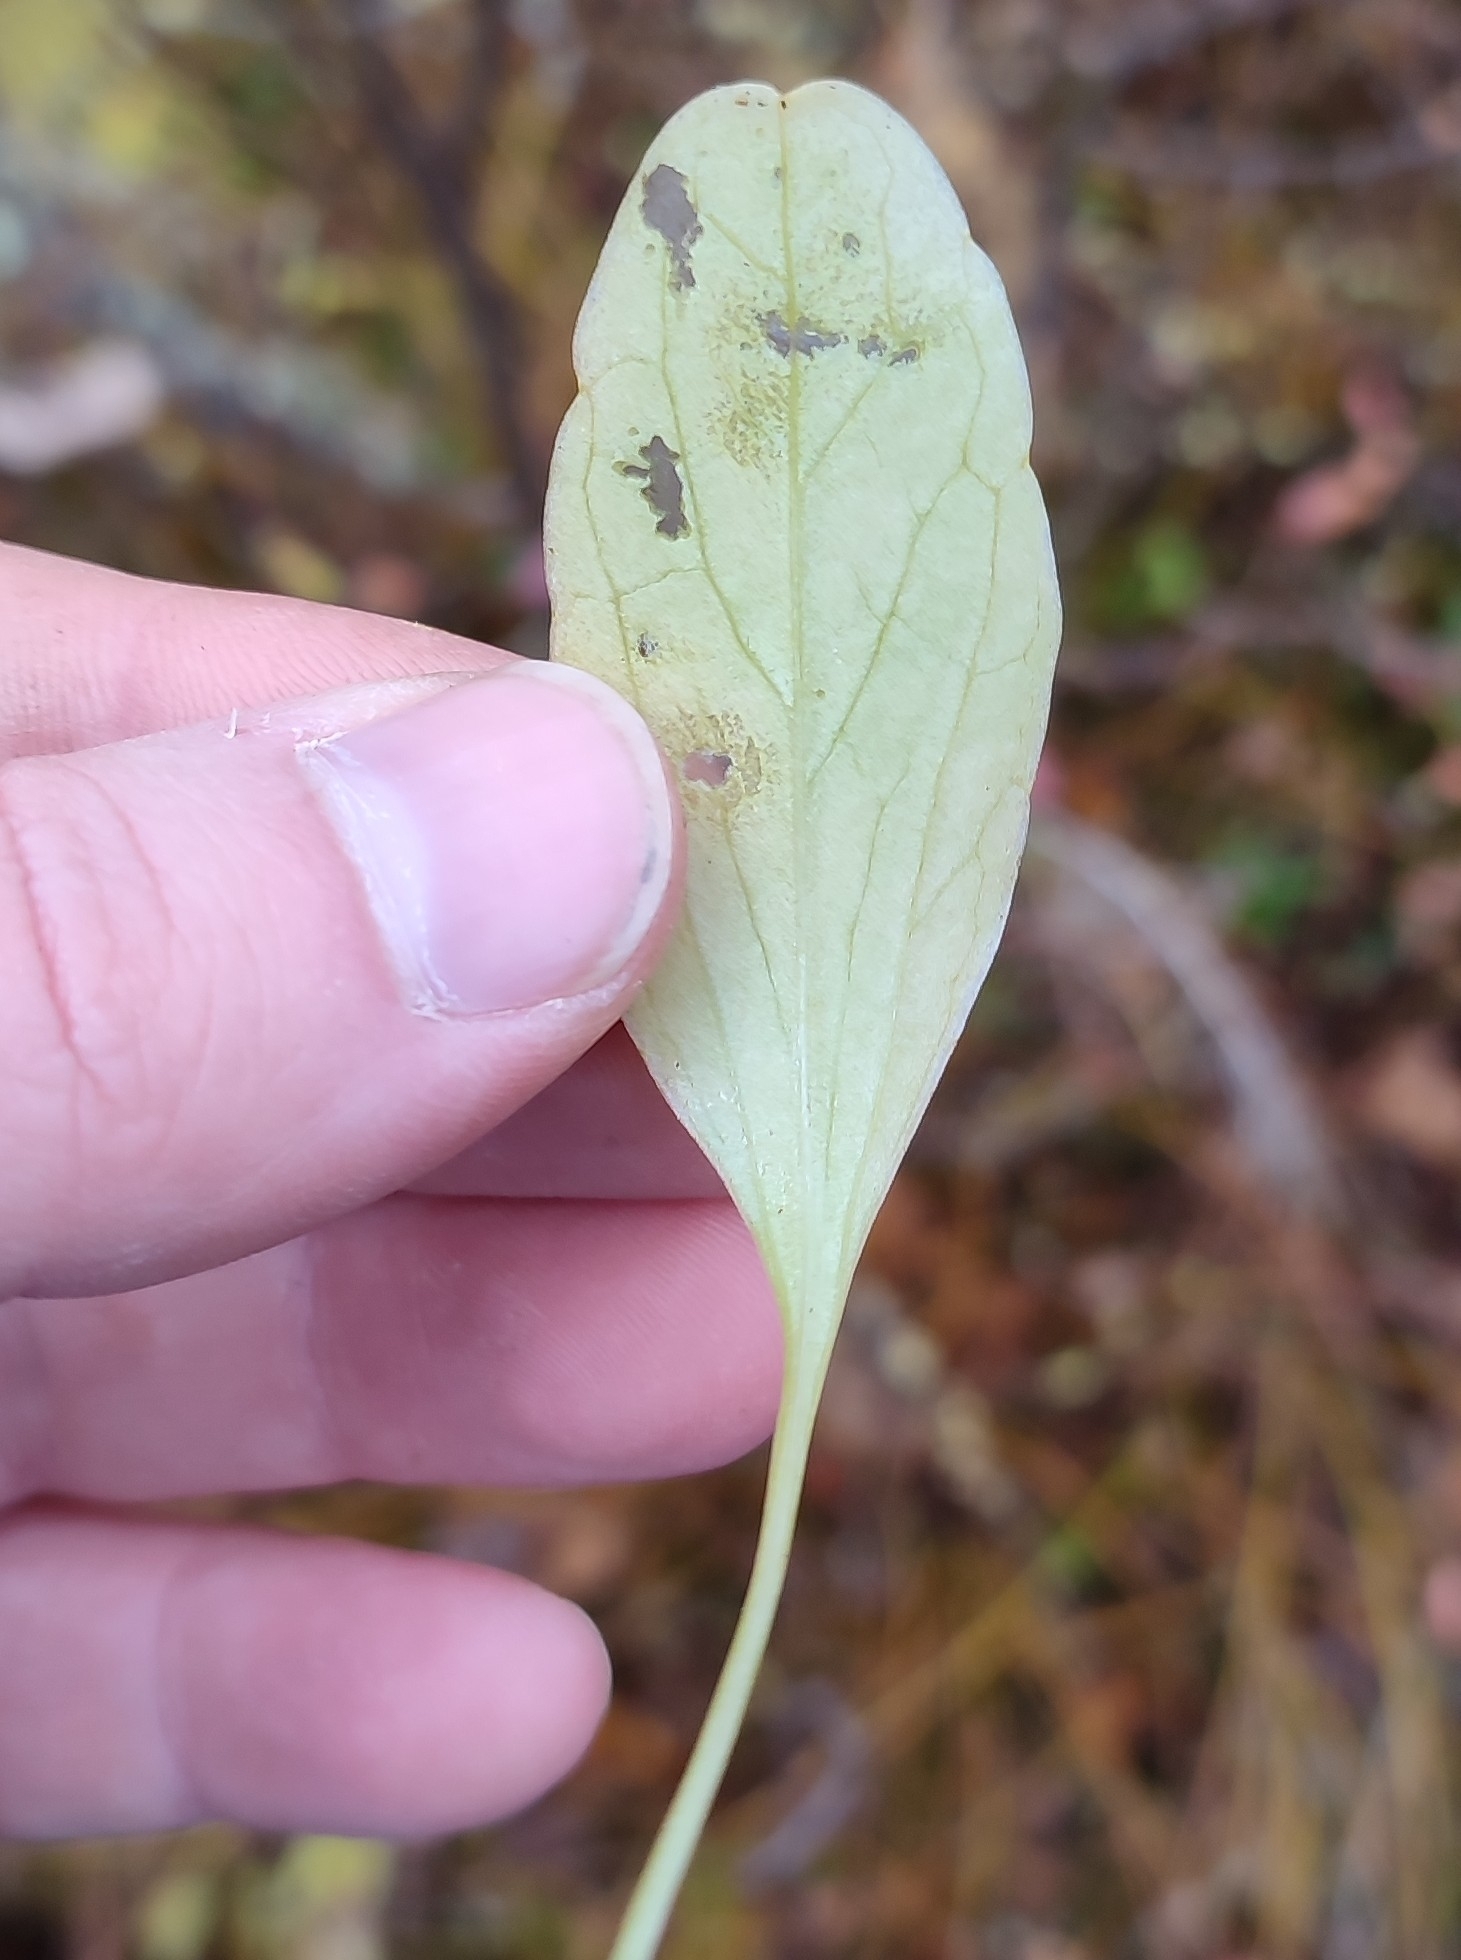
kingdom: Plantae
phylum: Tracheophyta
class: Magnoliopsida
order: Dipsacales
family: Caprifoliaceae
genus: Valeriana
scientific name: Valeriana capitata
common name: Capitate valerian
